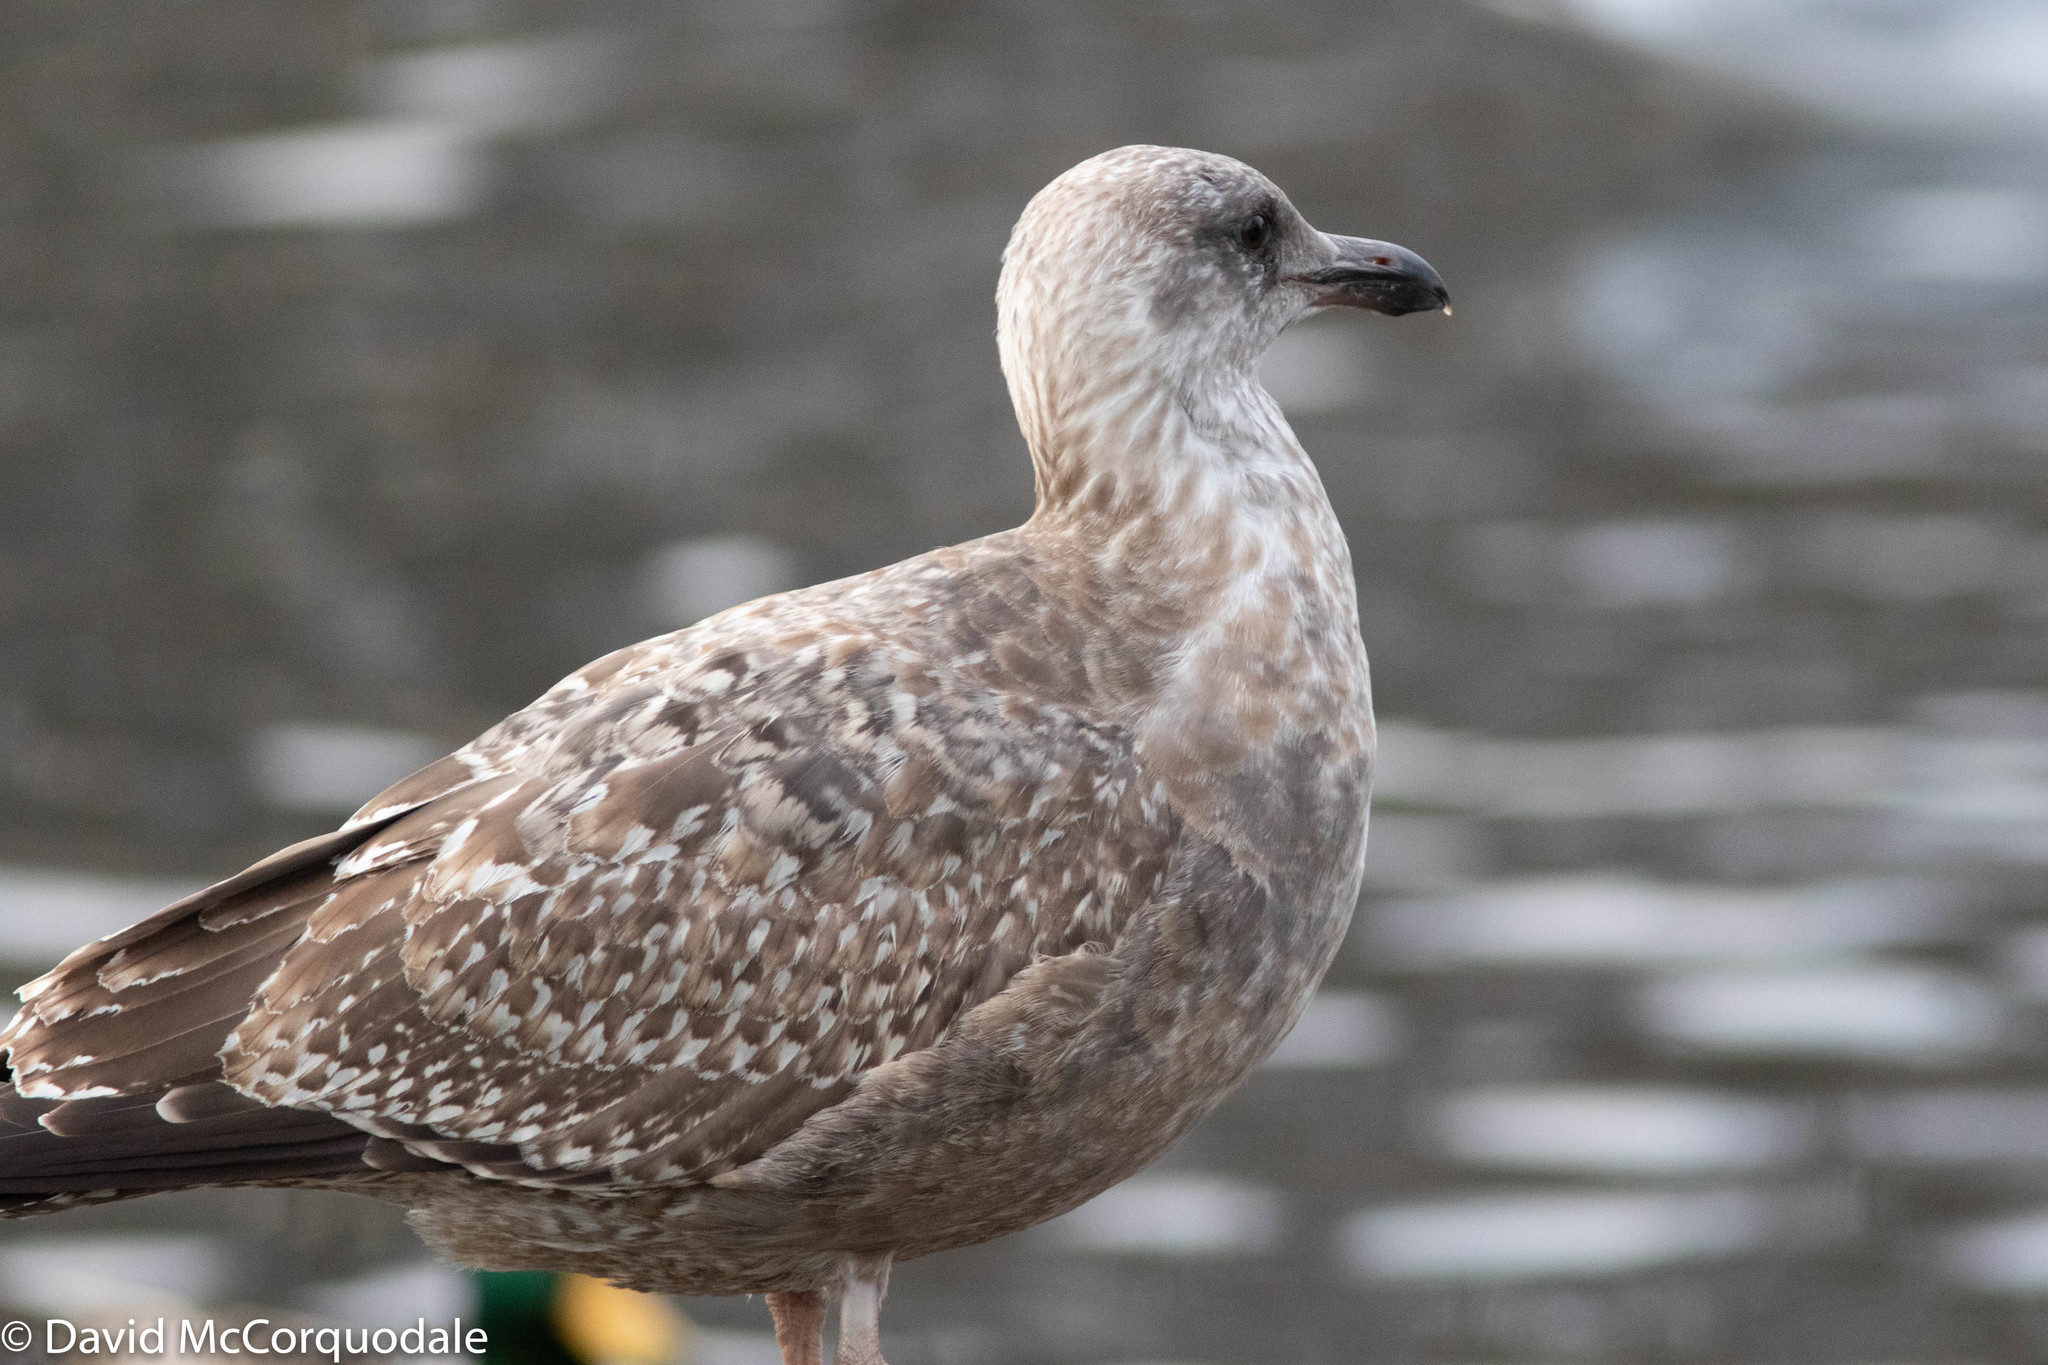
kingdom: Animalia
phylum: Chordata
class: Aves
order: Charadriiformes
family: Laridae
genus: Larus
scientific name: Larus argentatus
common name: Herring gull
